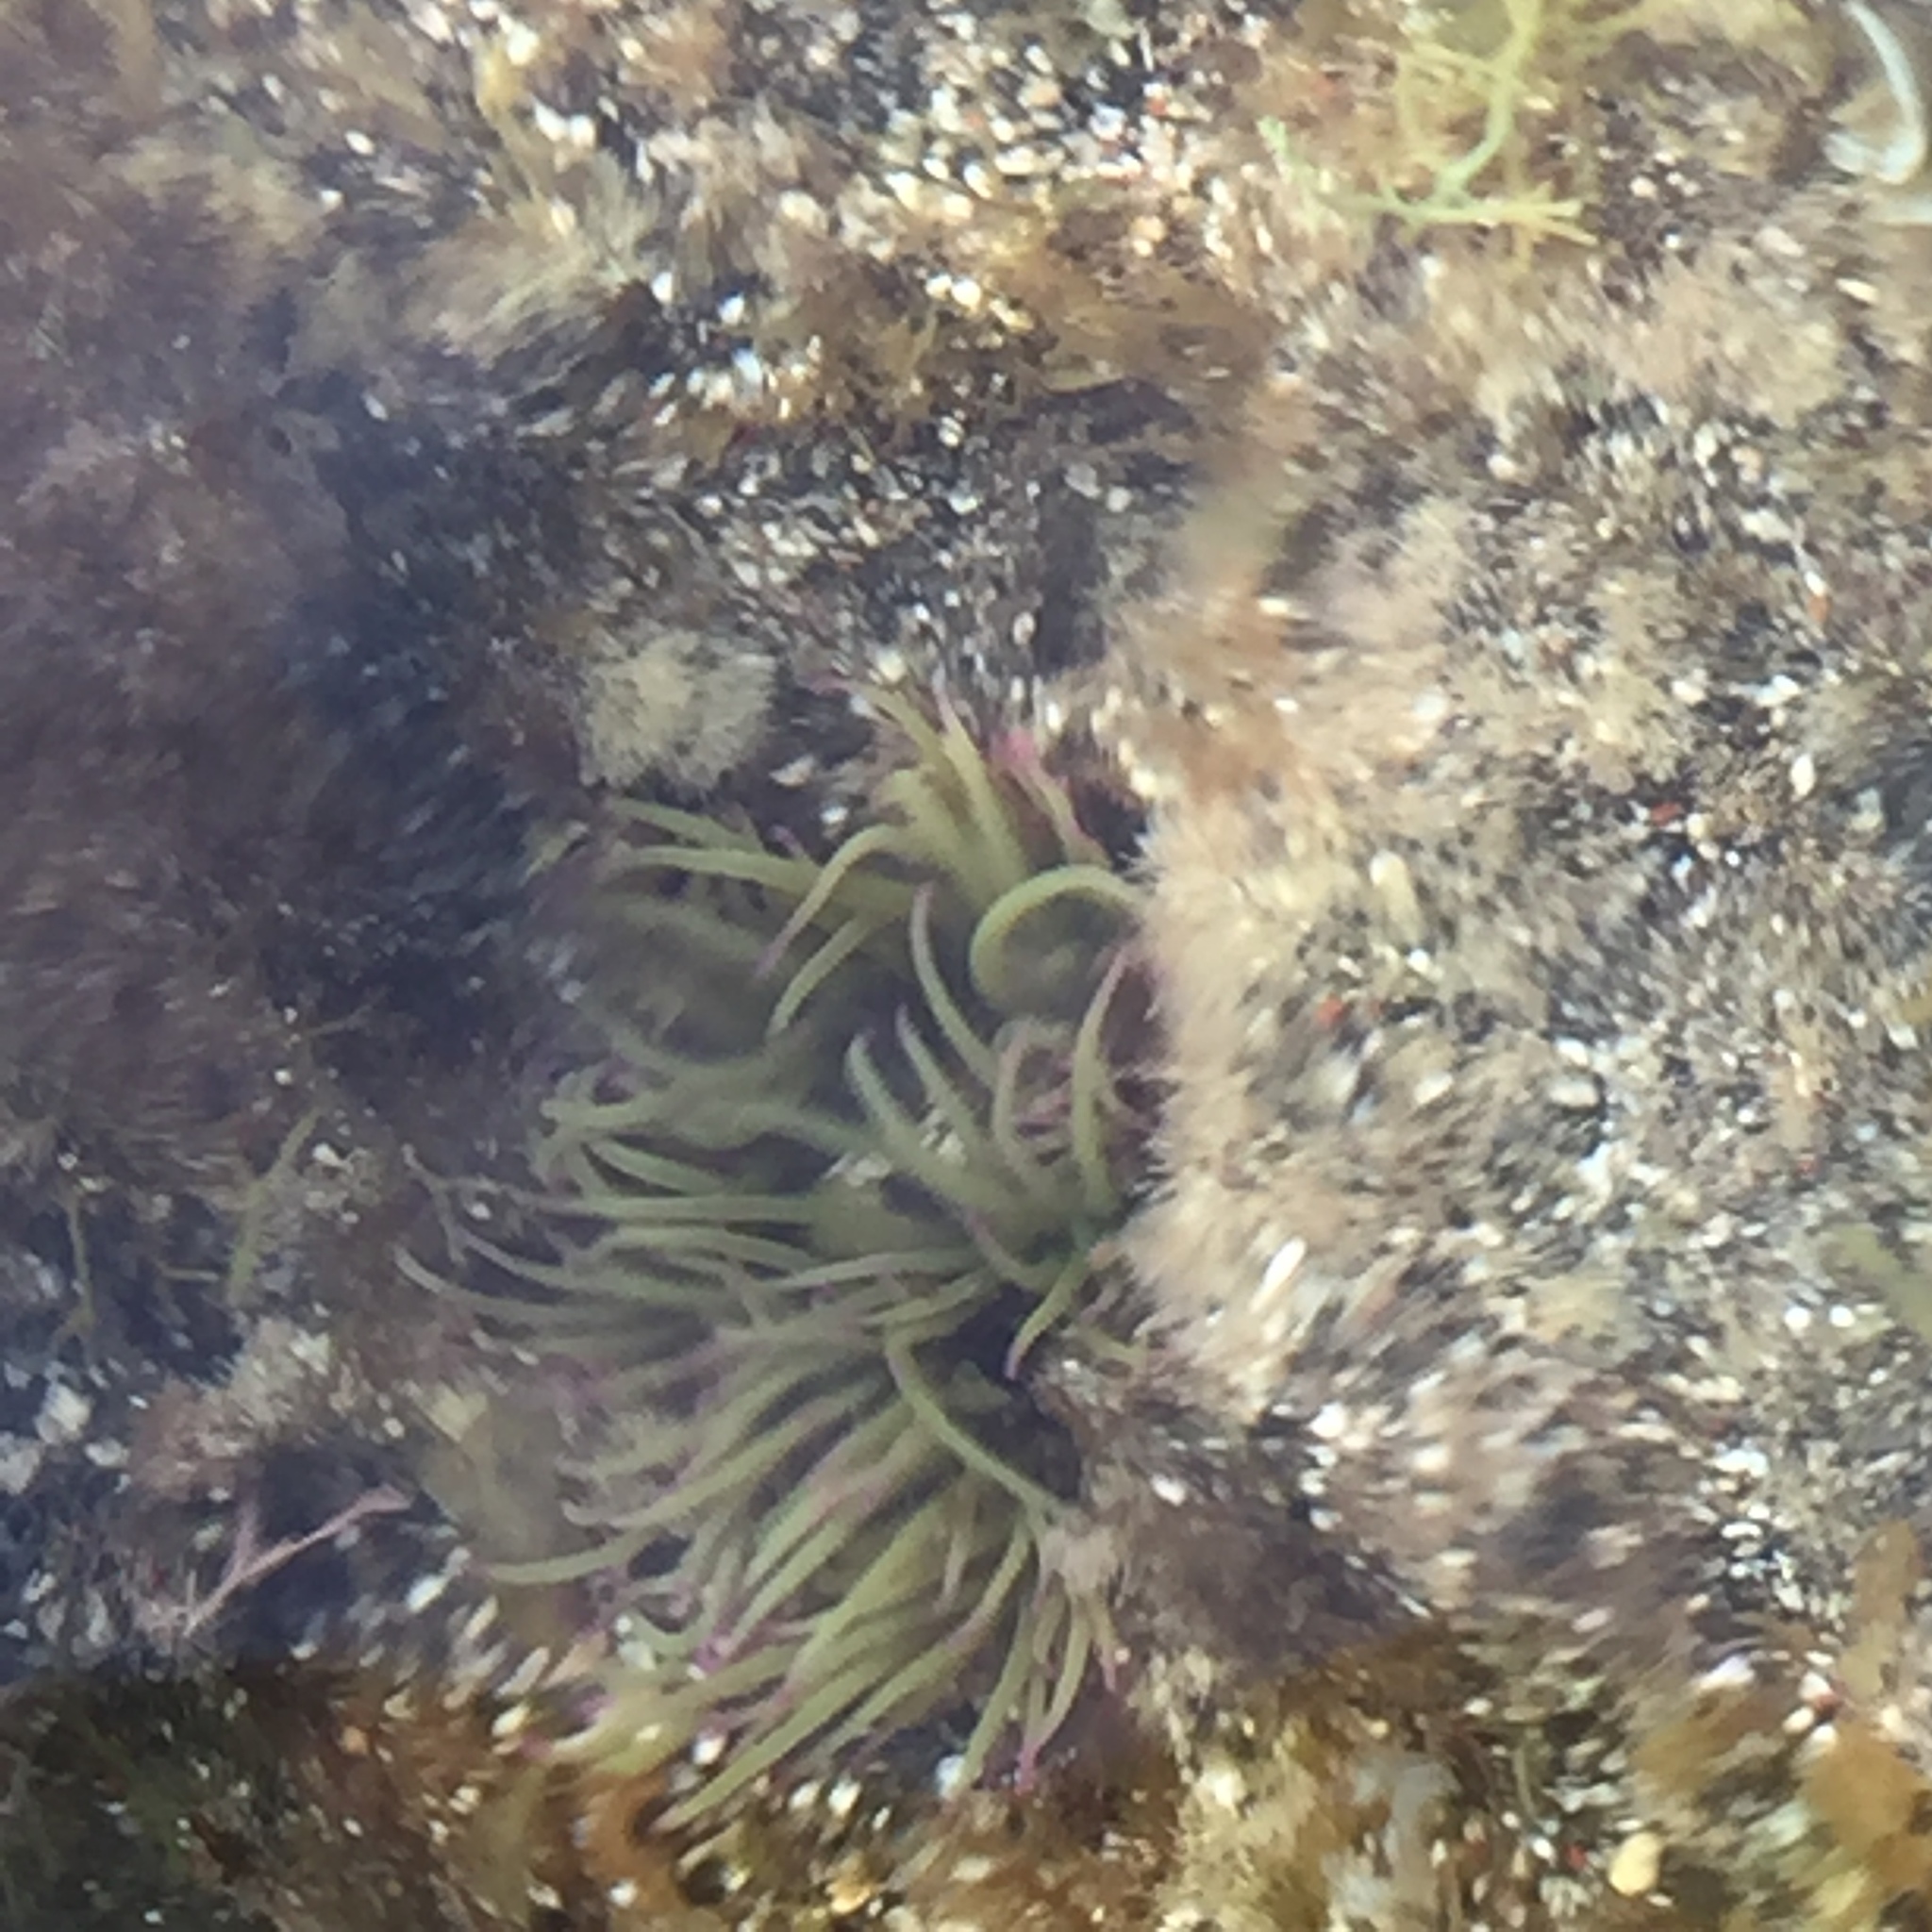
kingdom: Animalia
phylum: Cnidaria
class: Anthozoa
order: Actiniaria
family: Actiniidae
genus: Anemonia
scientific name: Anemonia viridis
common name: Snakelocks anemone
